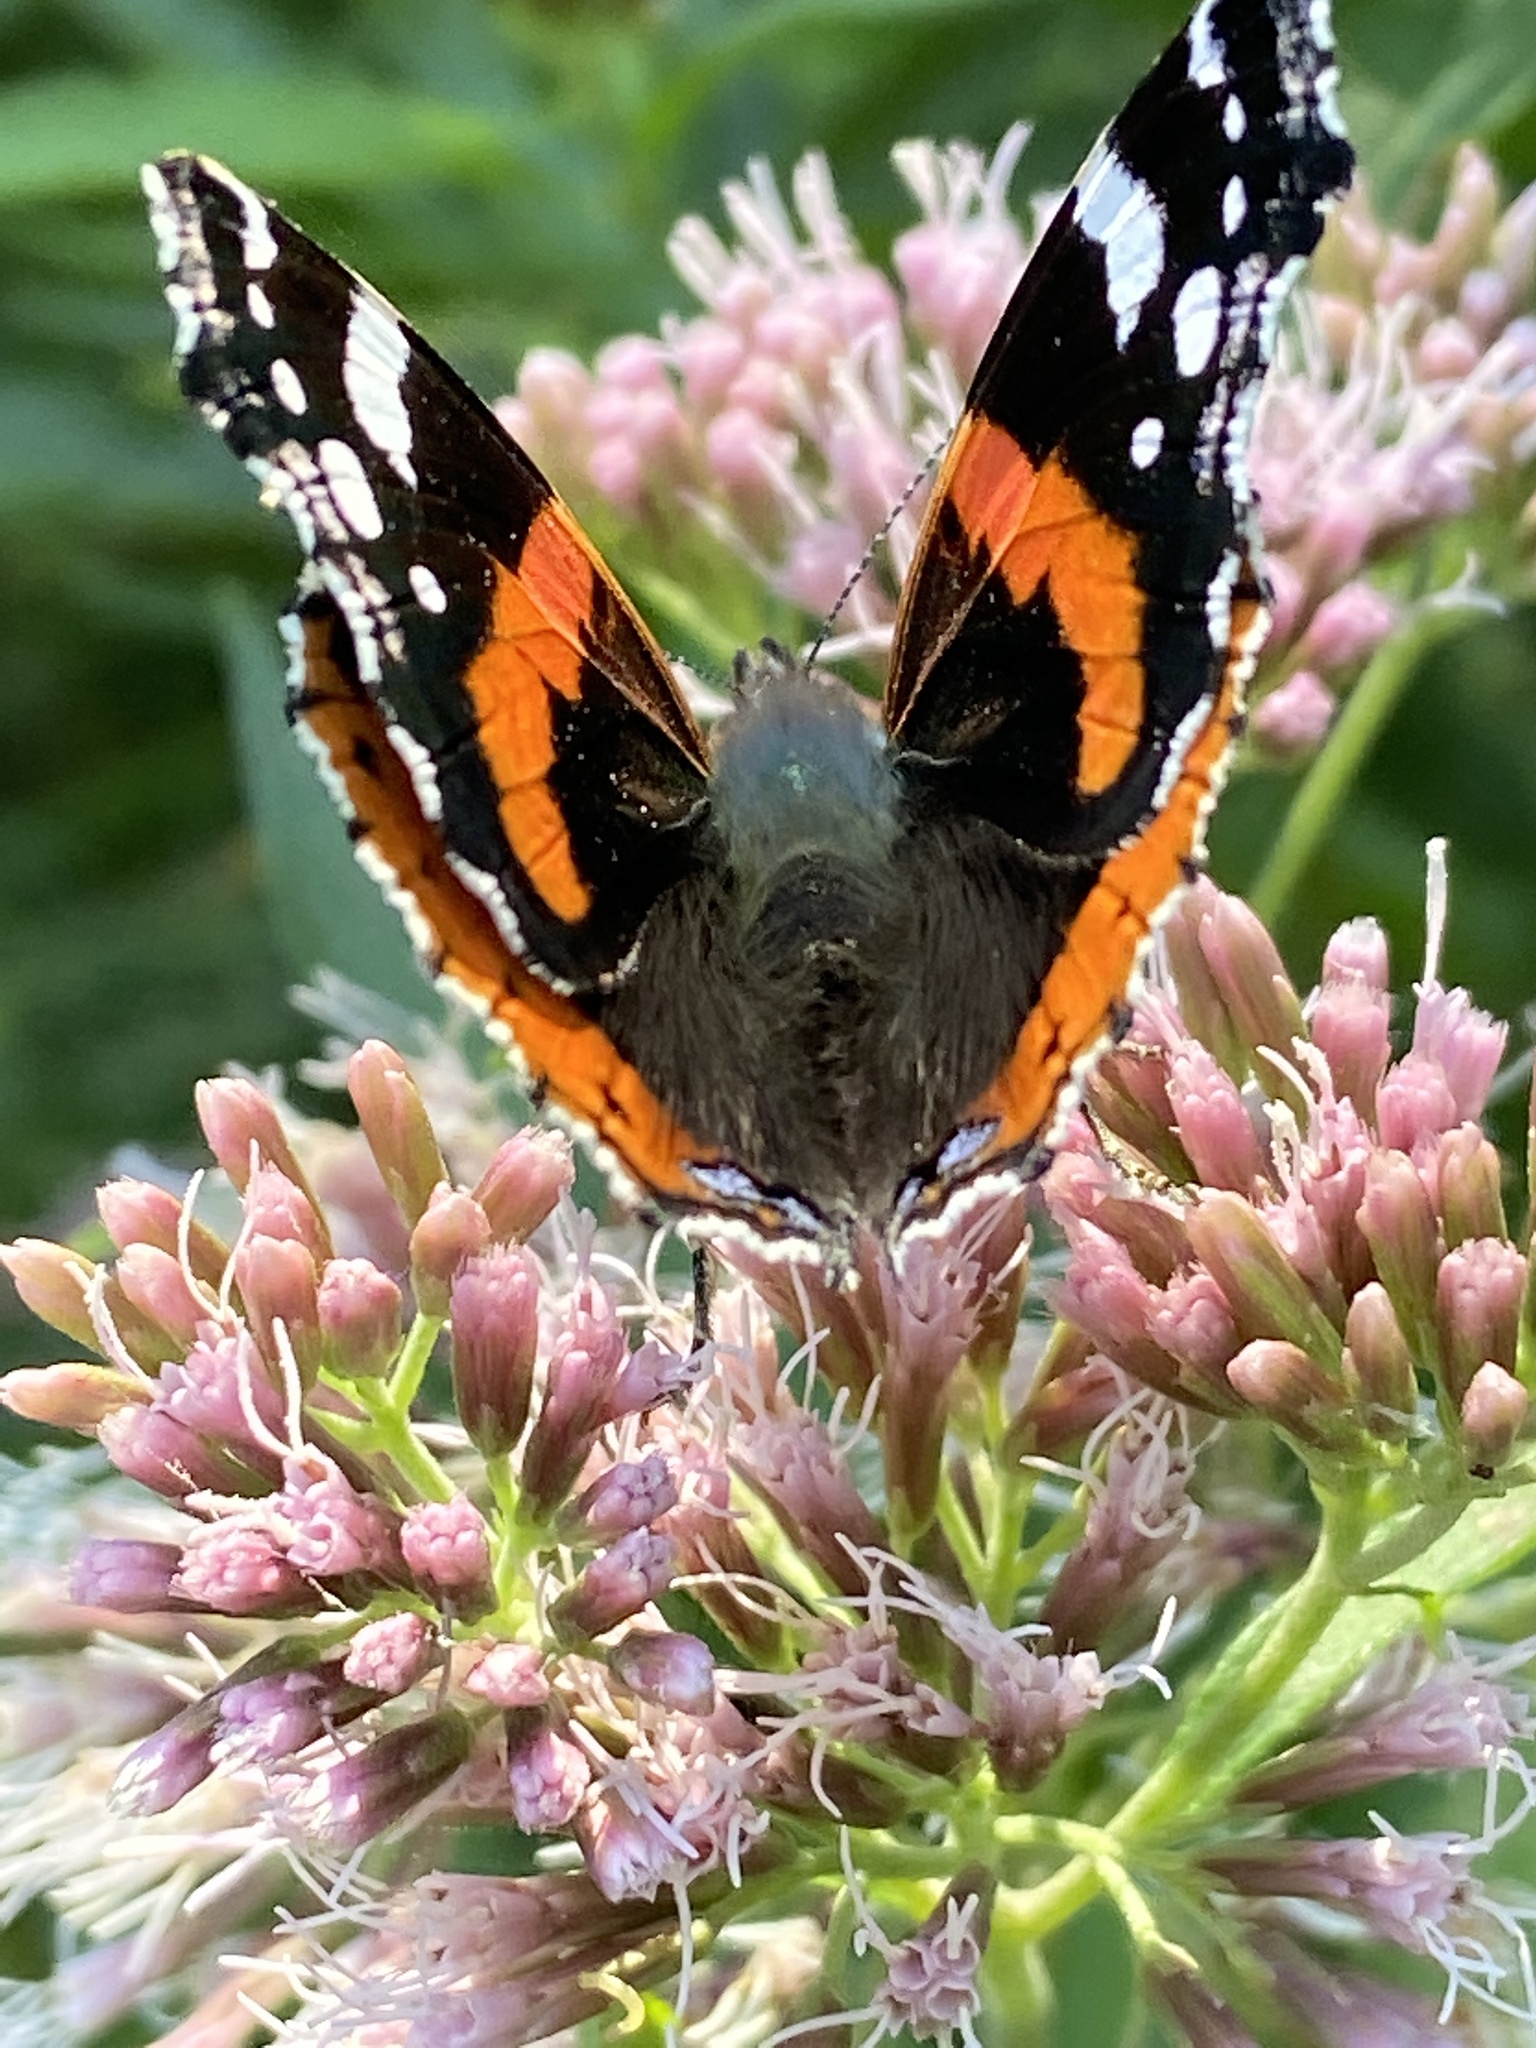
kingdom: Animalia
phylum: Arthropoda
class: Insecta
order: Lepidoptera
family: Nymphalidae
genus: Vanessa
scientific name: Vanessa atalanta
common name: Red admiral
